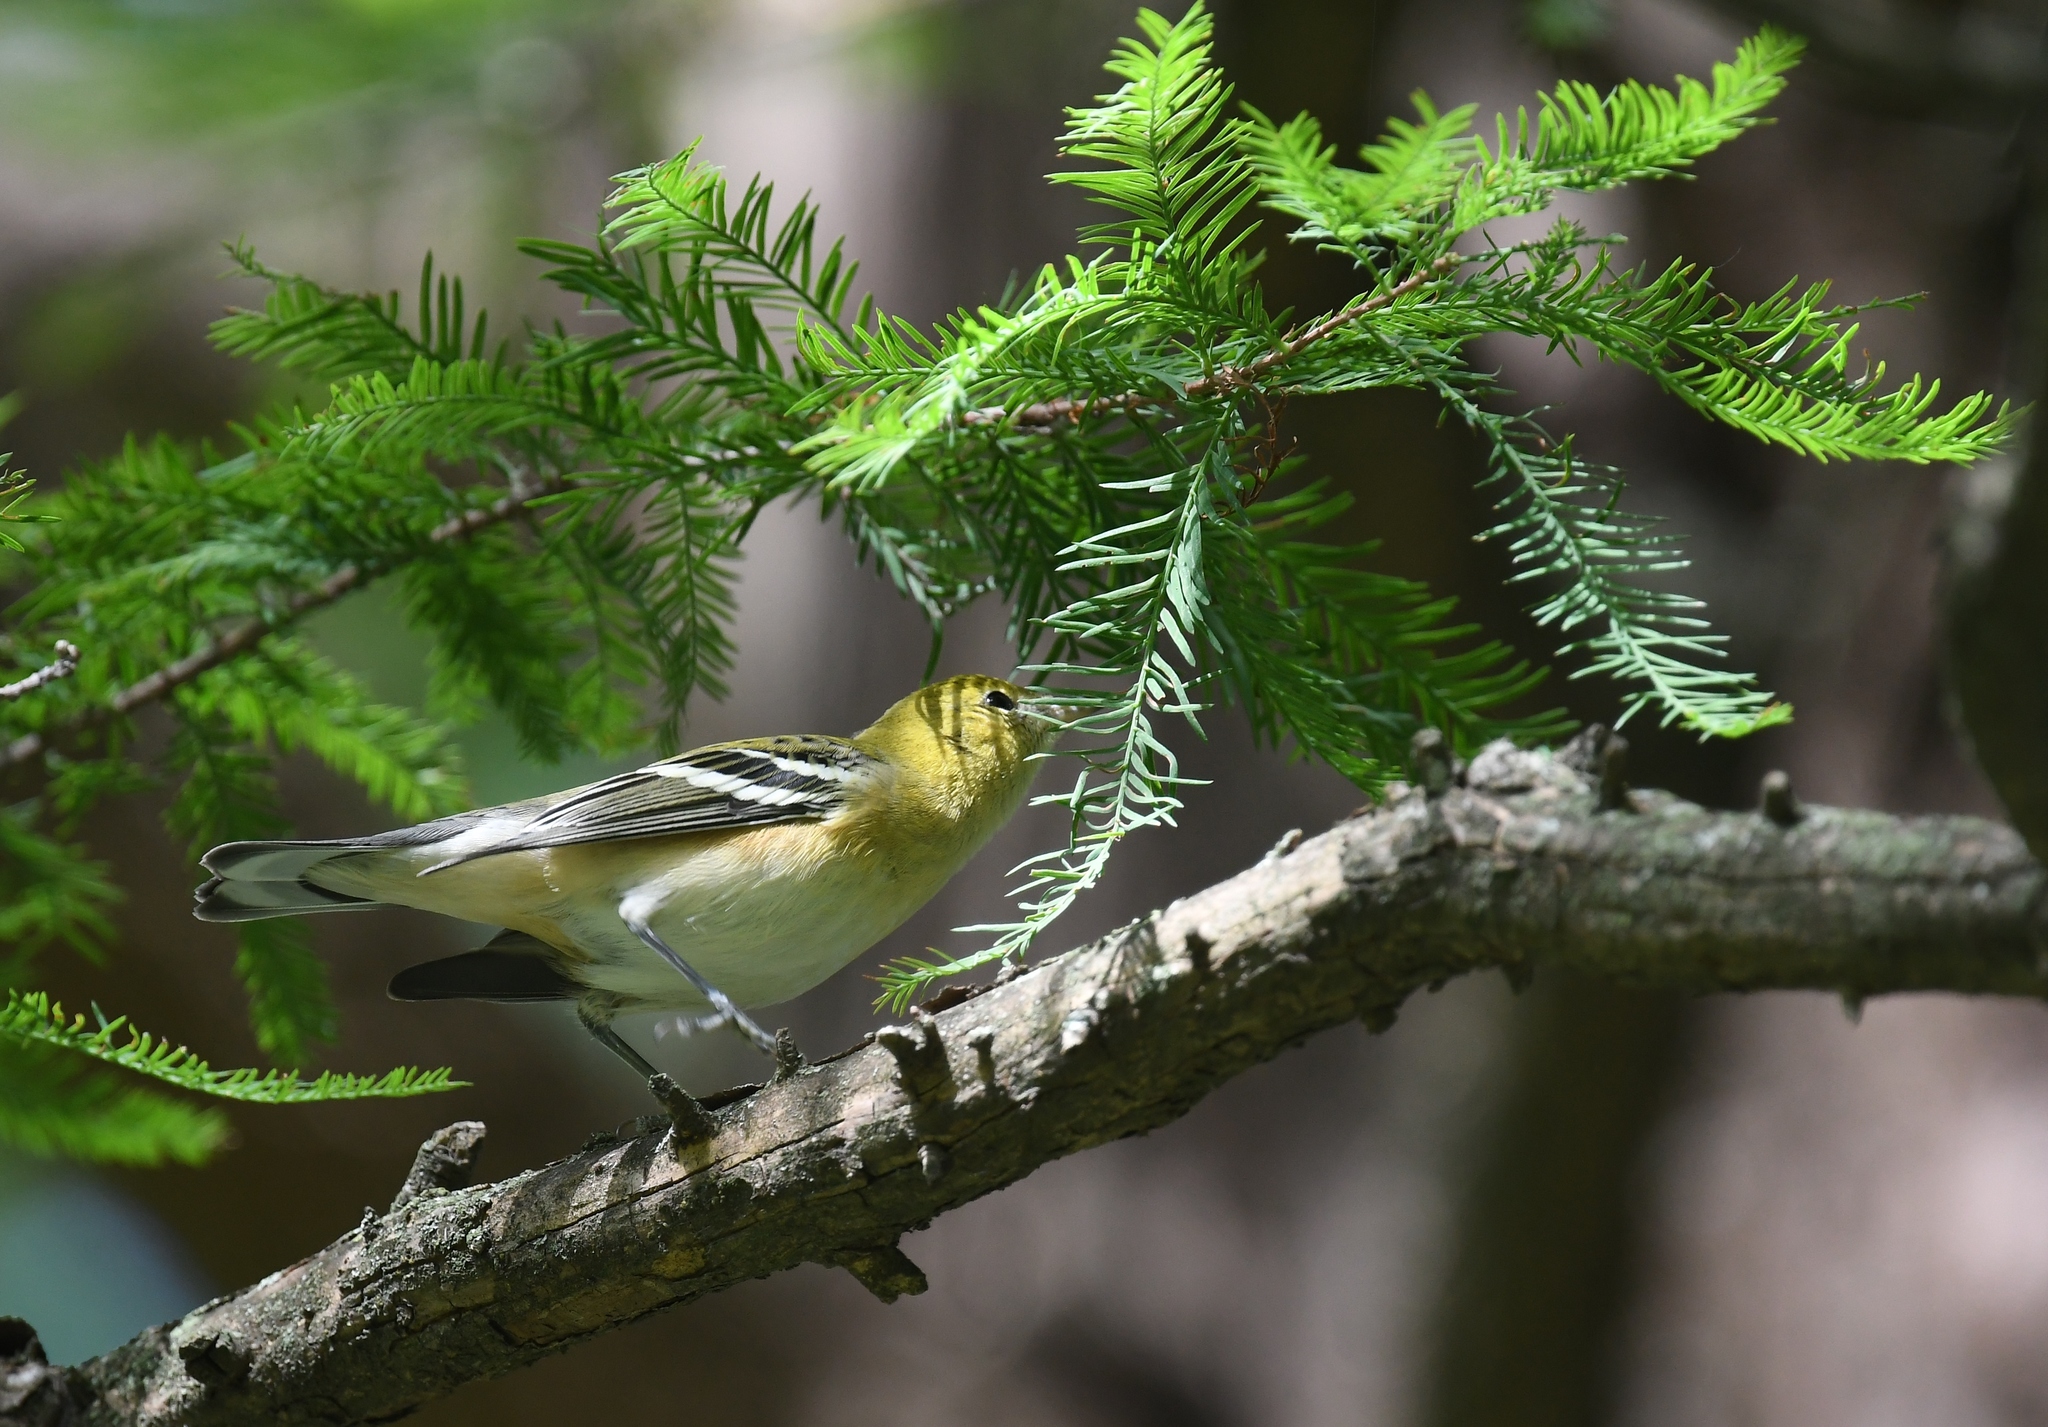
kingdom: Animalia
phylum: Chordata
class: Aves
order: Passeriformes
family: Parulidae
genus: Setophaga
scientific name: Setophaga castanea
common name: Bay-breasted warbler
